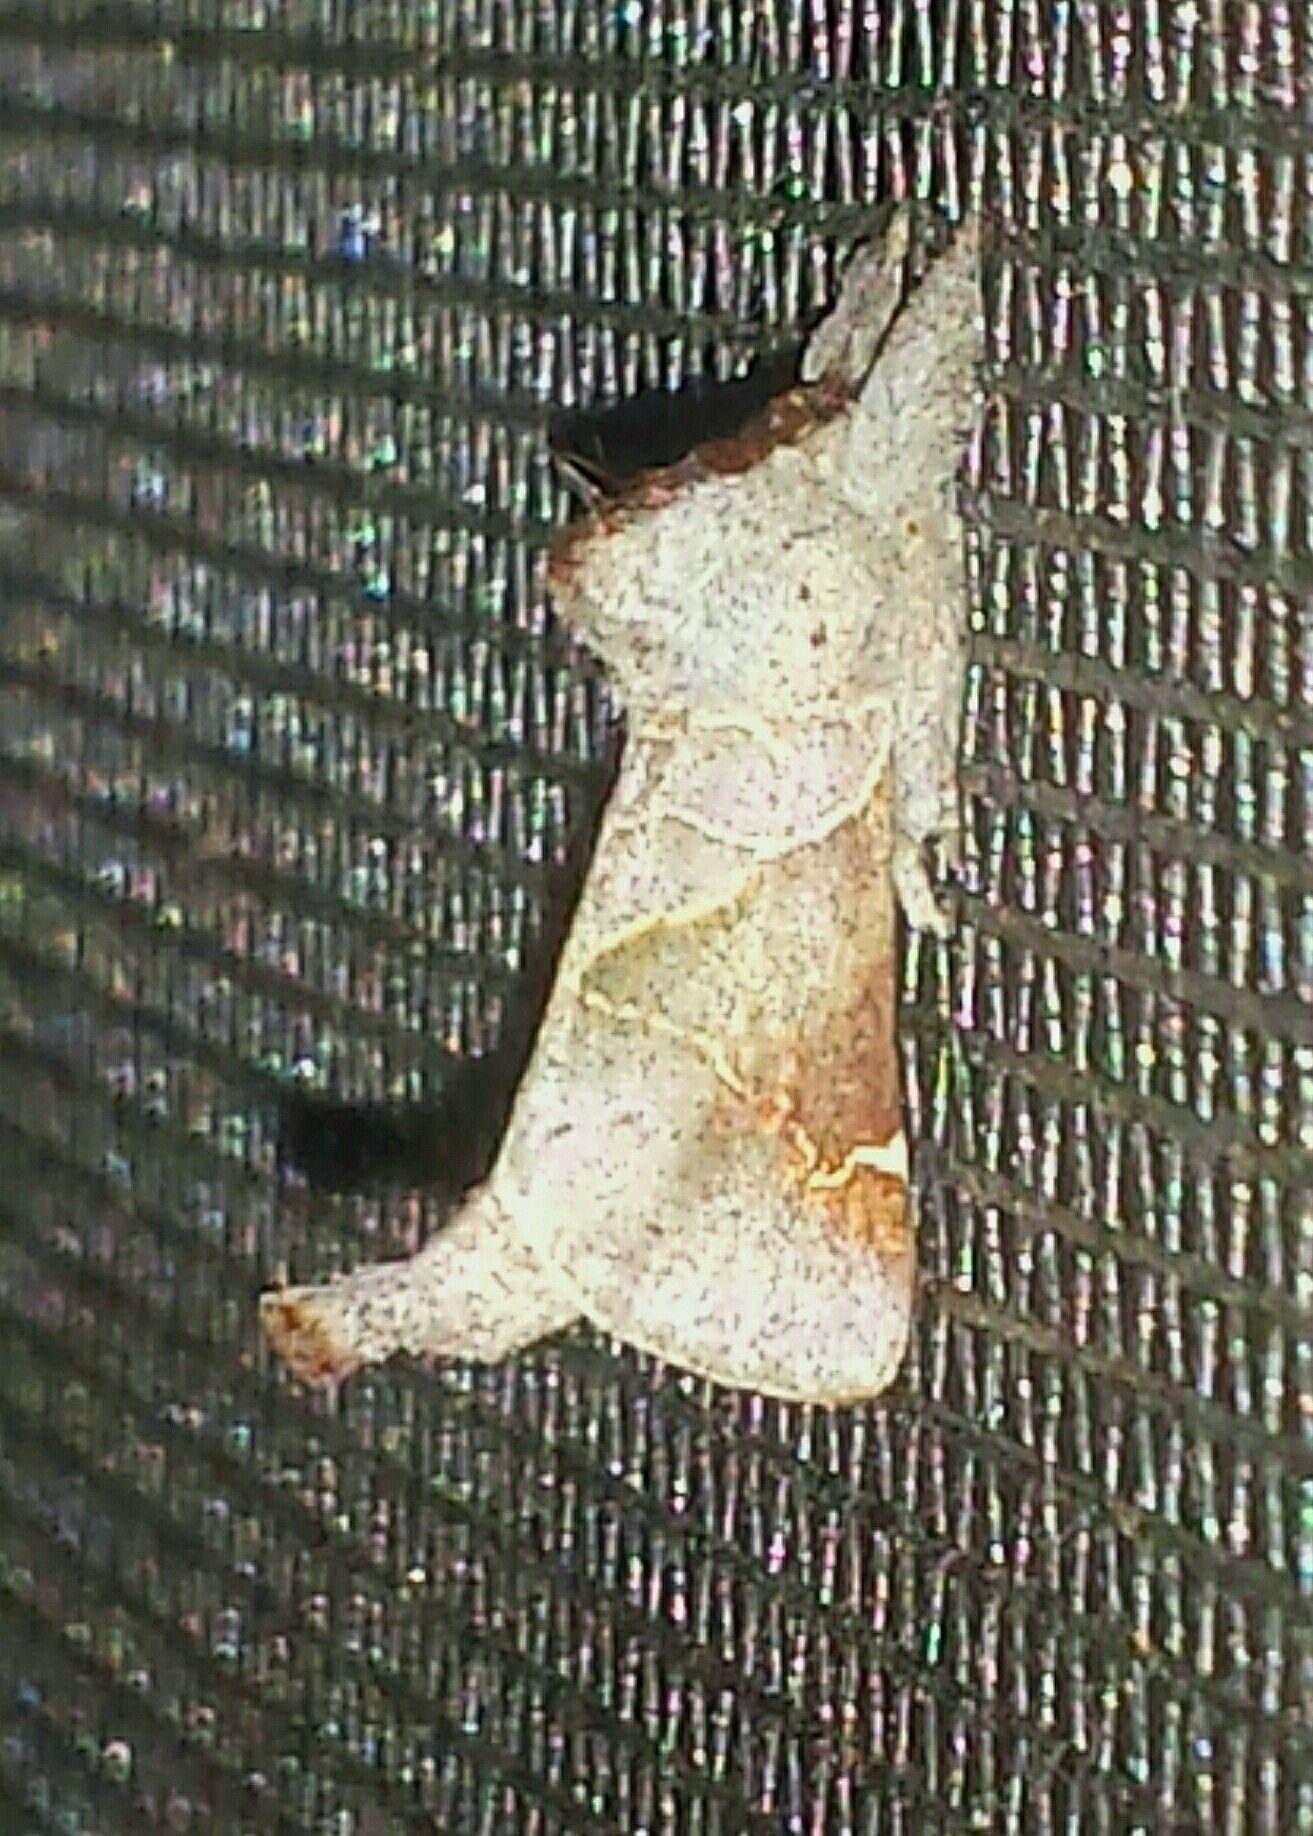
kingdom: Animalia
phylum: Arthropoda
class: Insecta
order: Lepidoptera
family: Notodontidae
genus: Clostera
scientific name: Clostera apicalis
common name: Apical prominent
